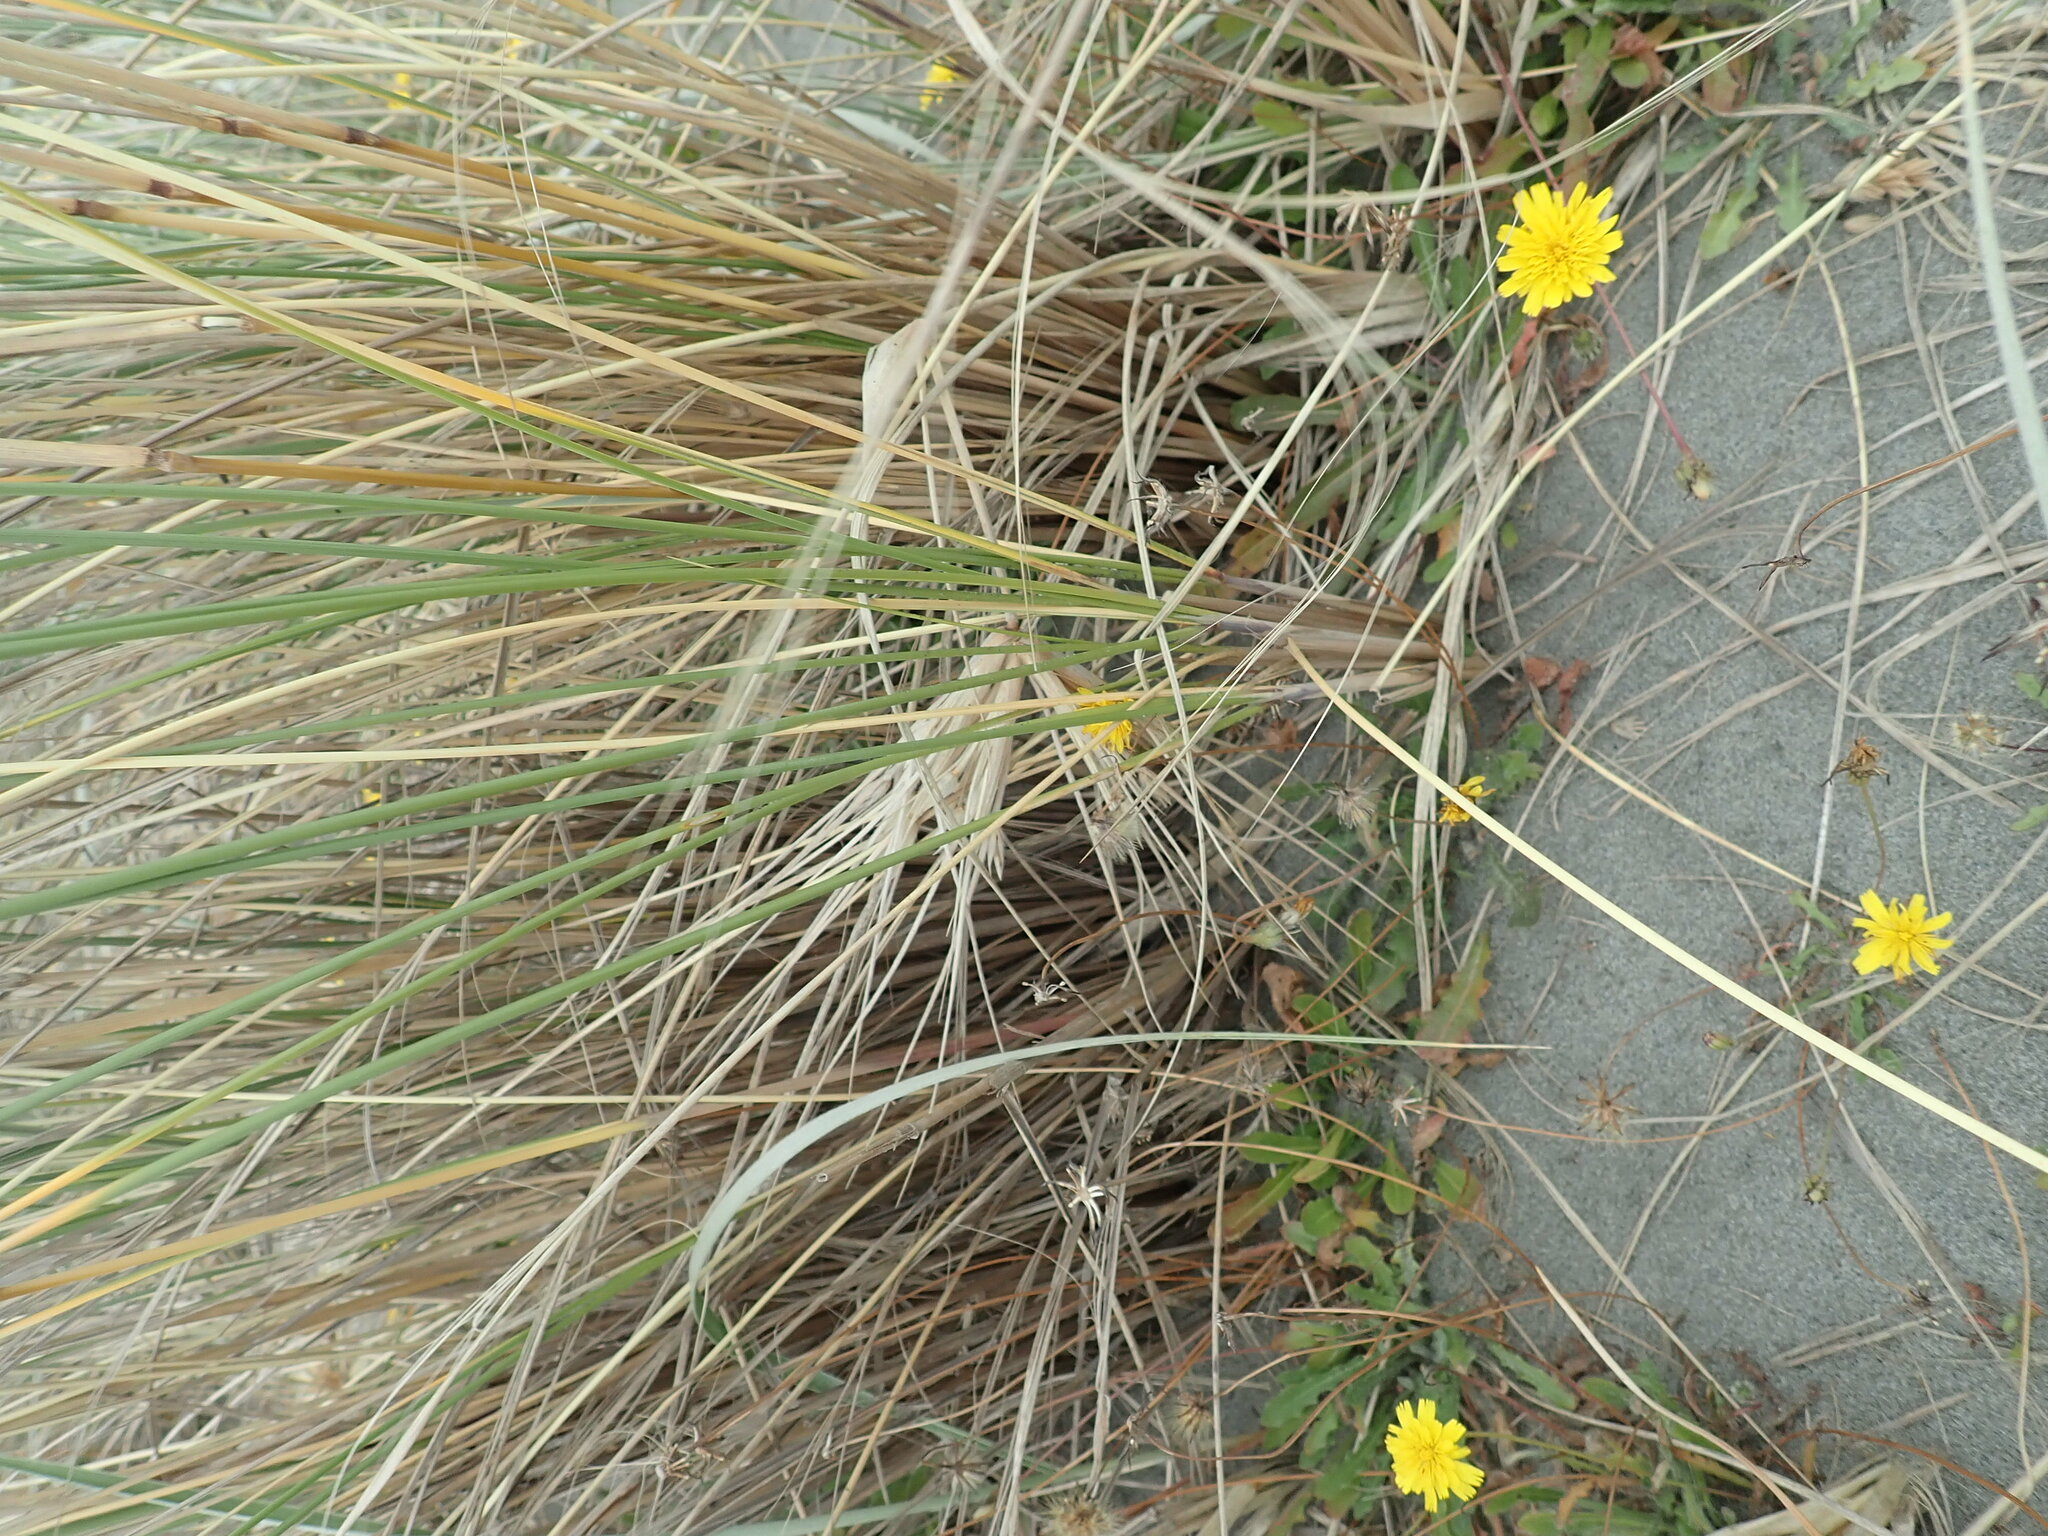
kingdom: Plantae
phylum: Tracheophyta
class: Liliopsida
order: Poales
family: Poaceae
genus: Calamagrostis
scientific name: Calamagrostis arenaria
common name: European beachgrass
